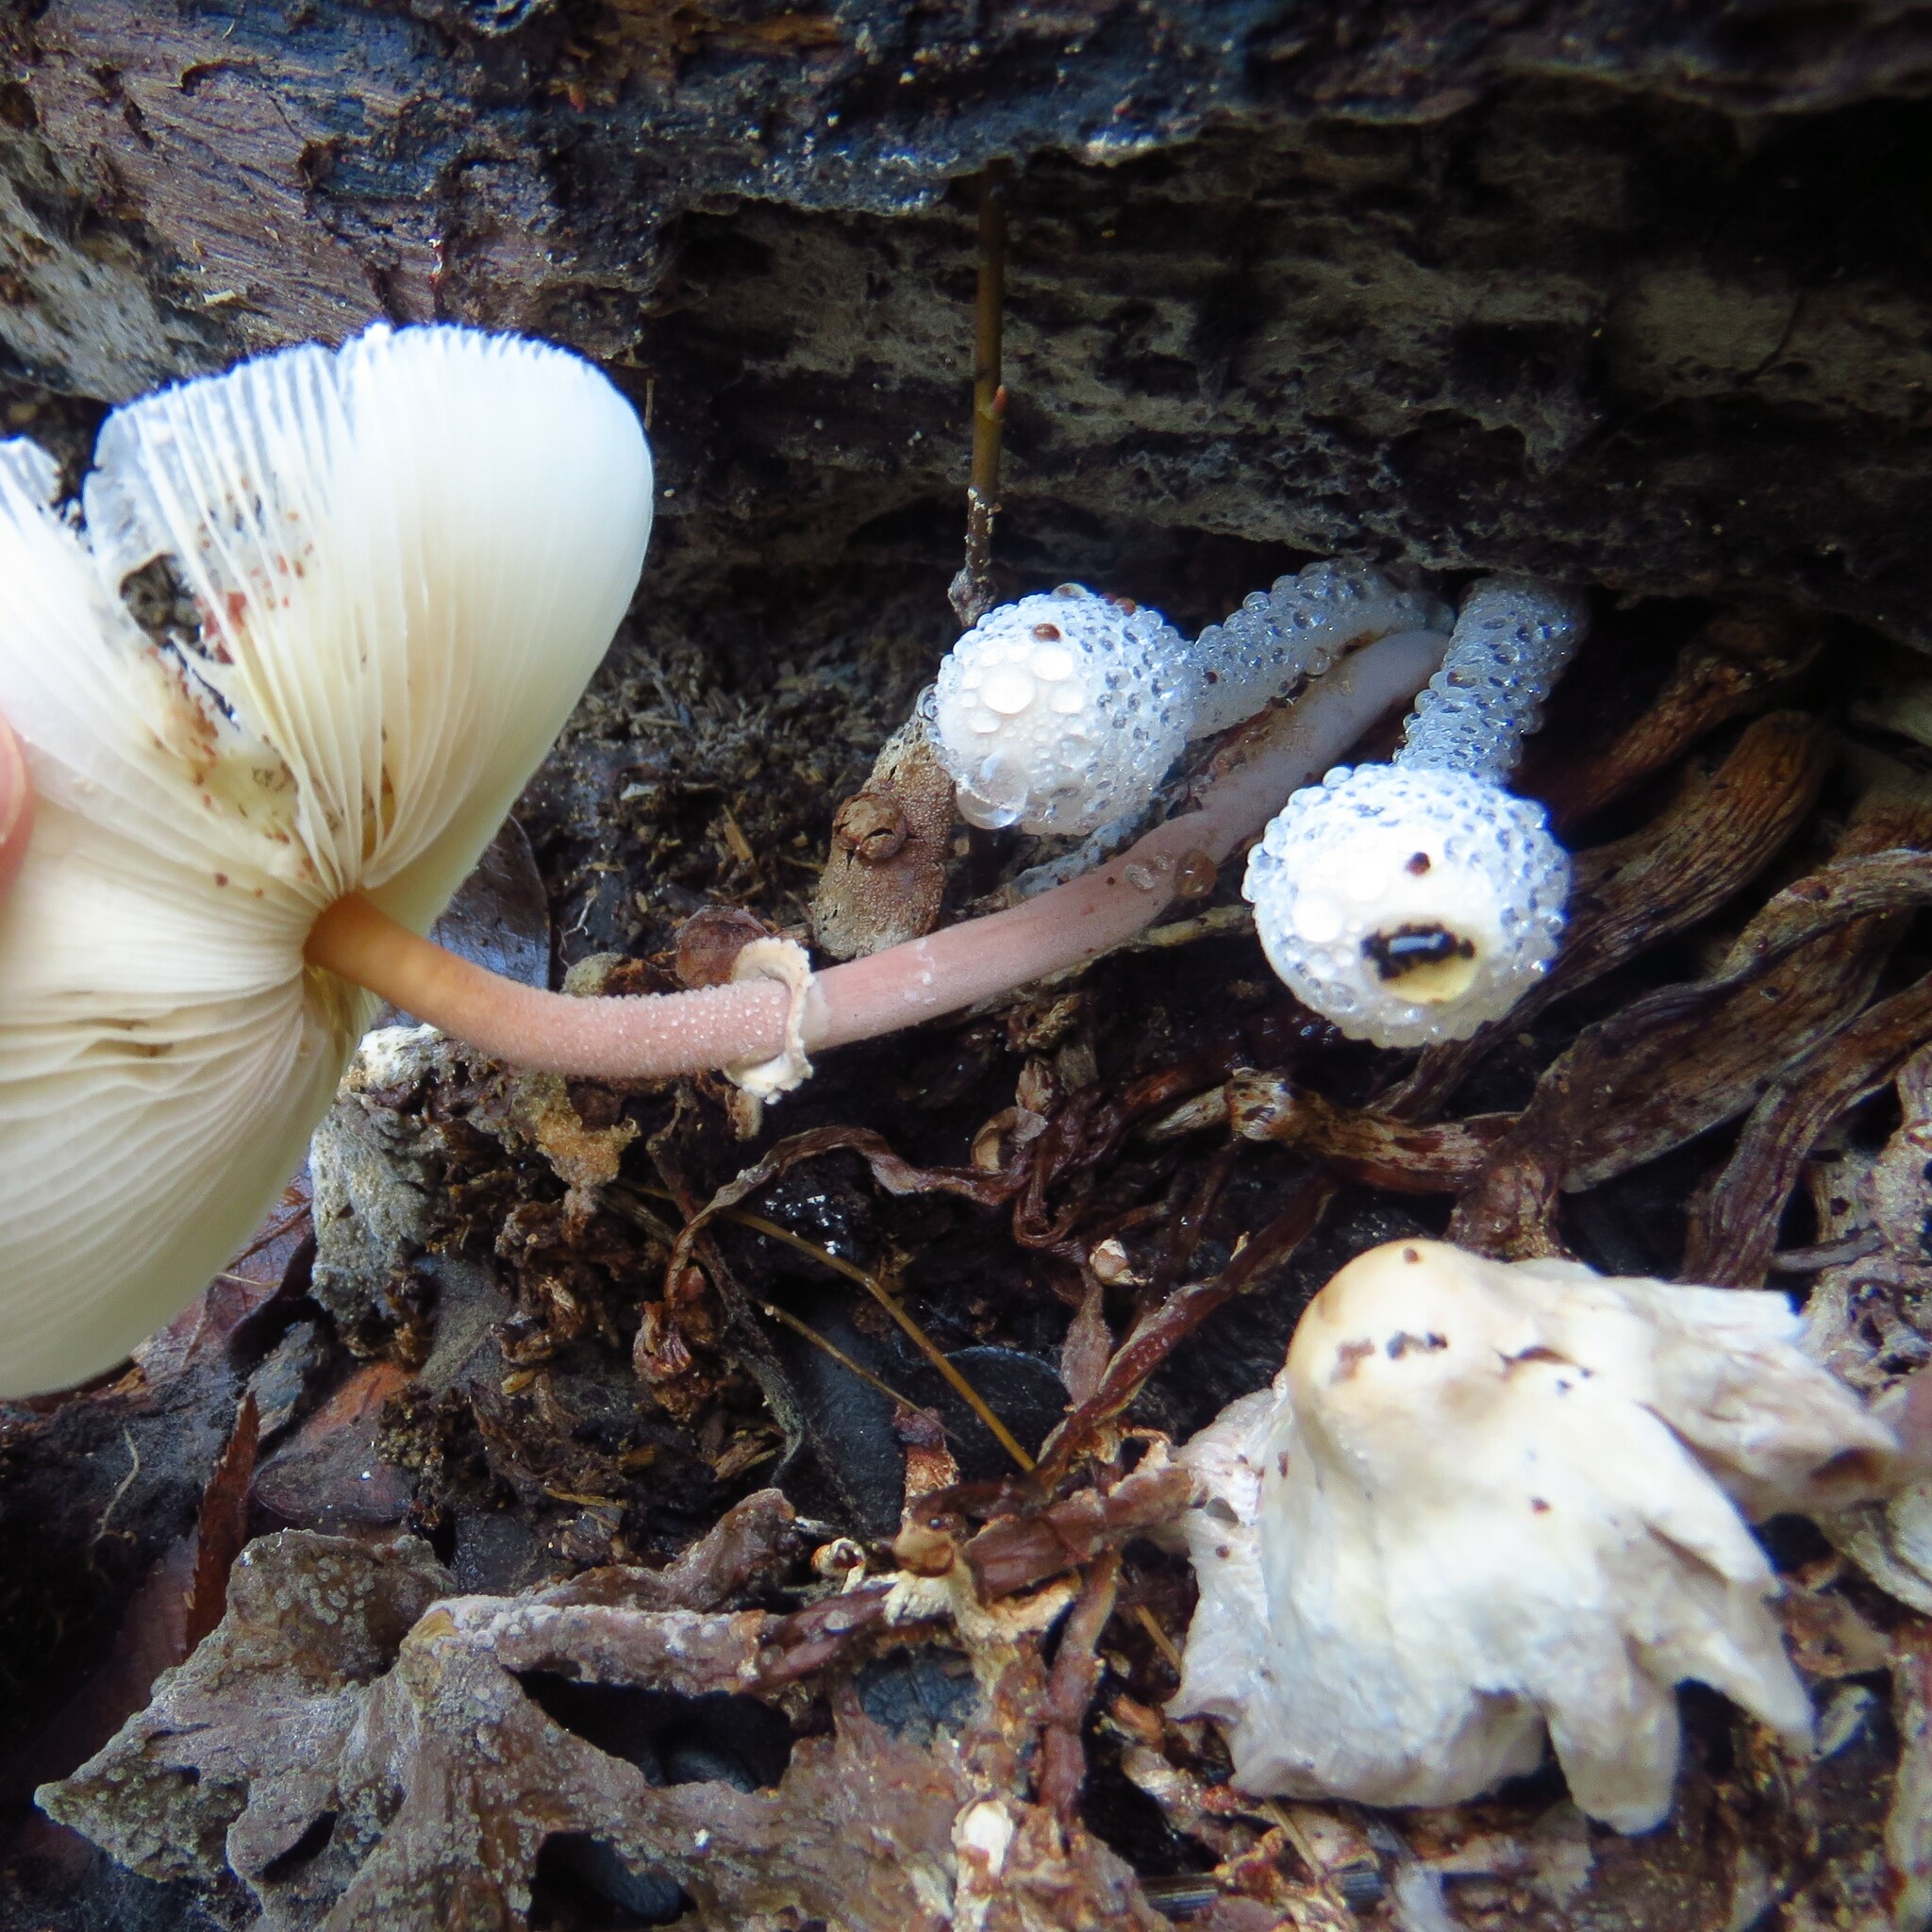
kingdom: Fungi
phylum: Basidiomycota
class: Agaricomycetes
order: Agaricales
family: Agaricaceae
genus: Leucocoprinus
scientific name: Leucocoprinus cepistipes
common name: Onion-stalk parasol
